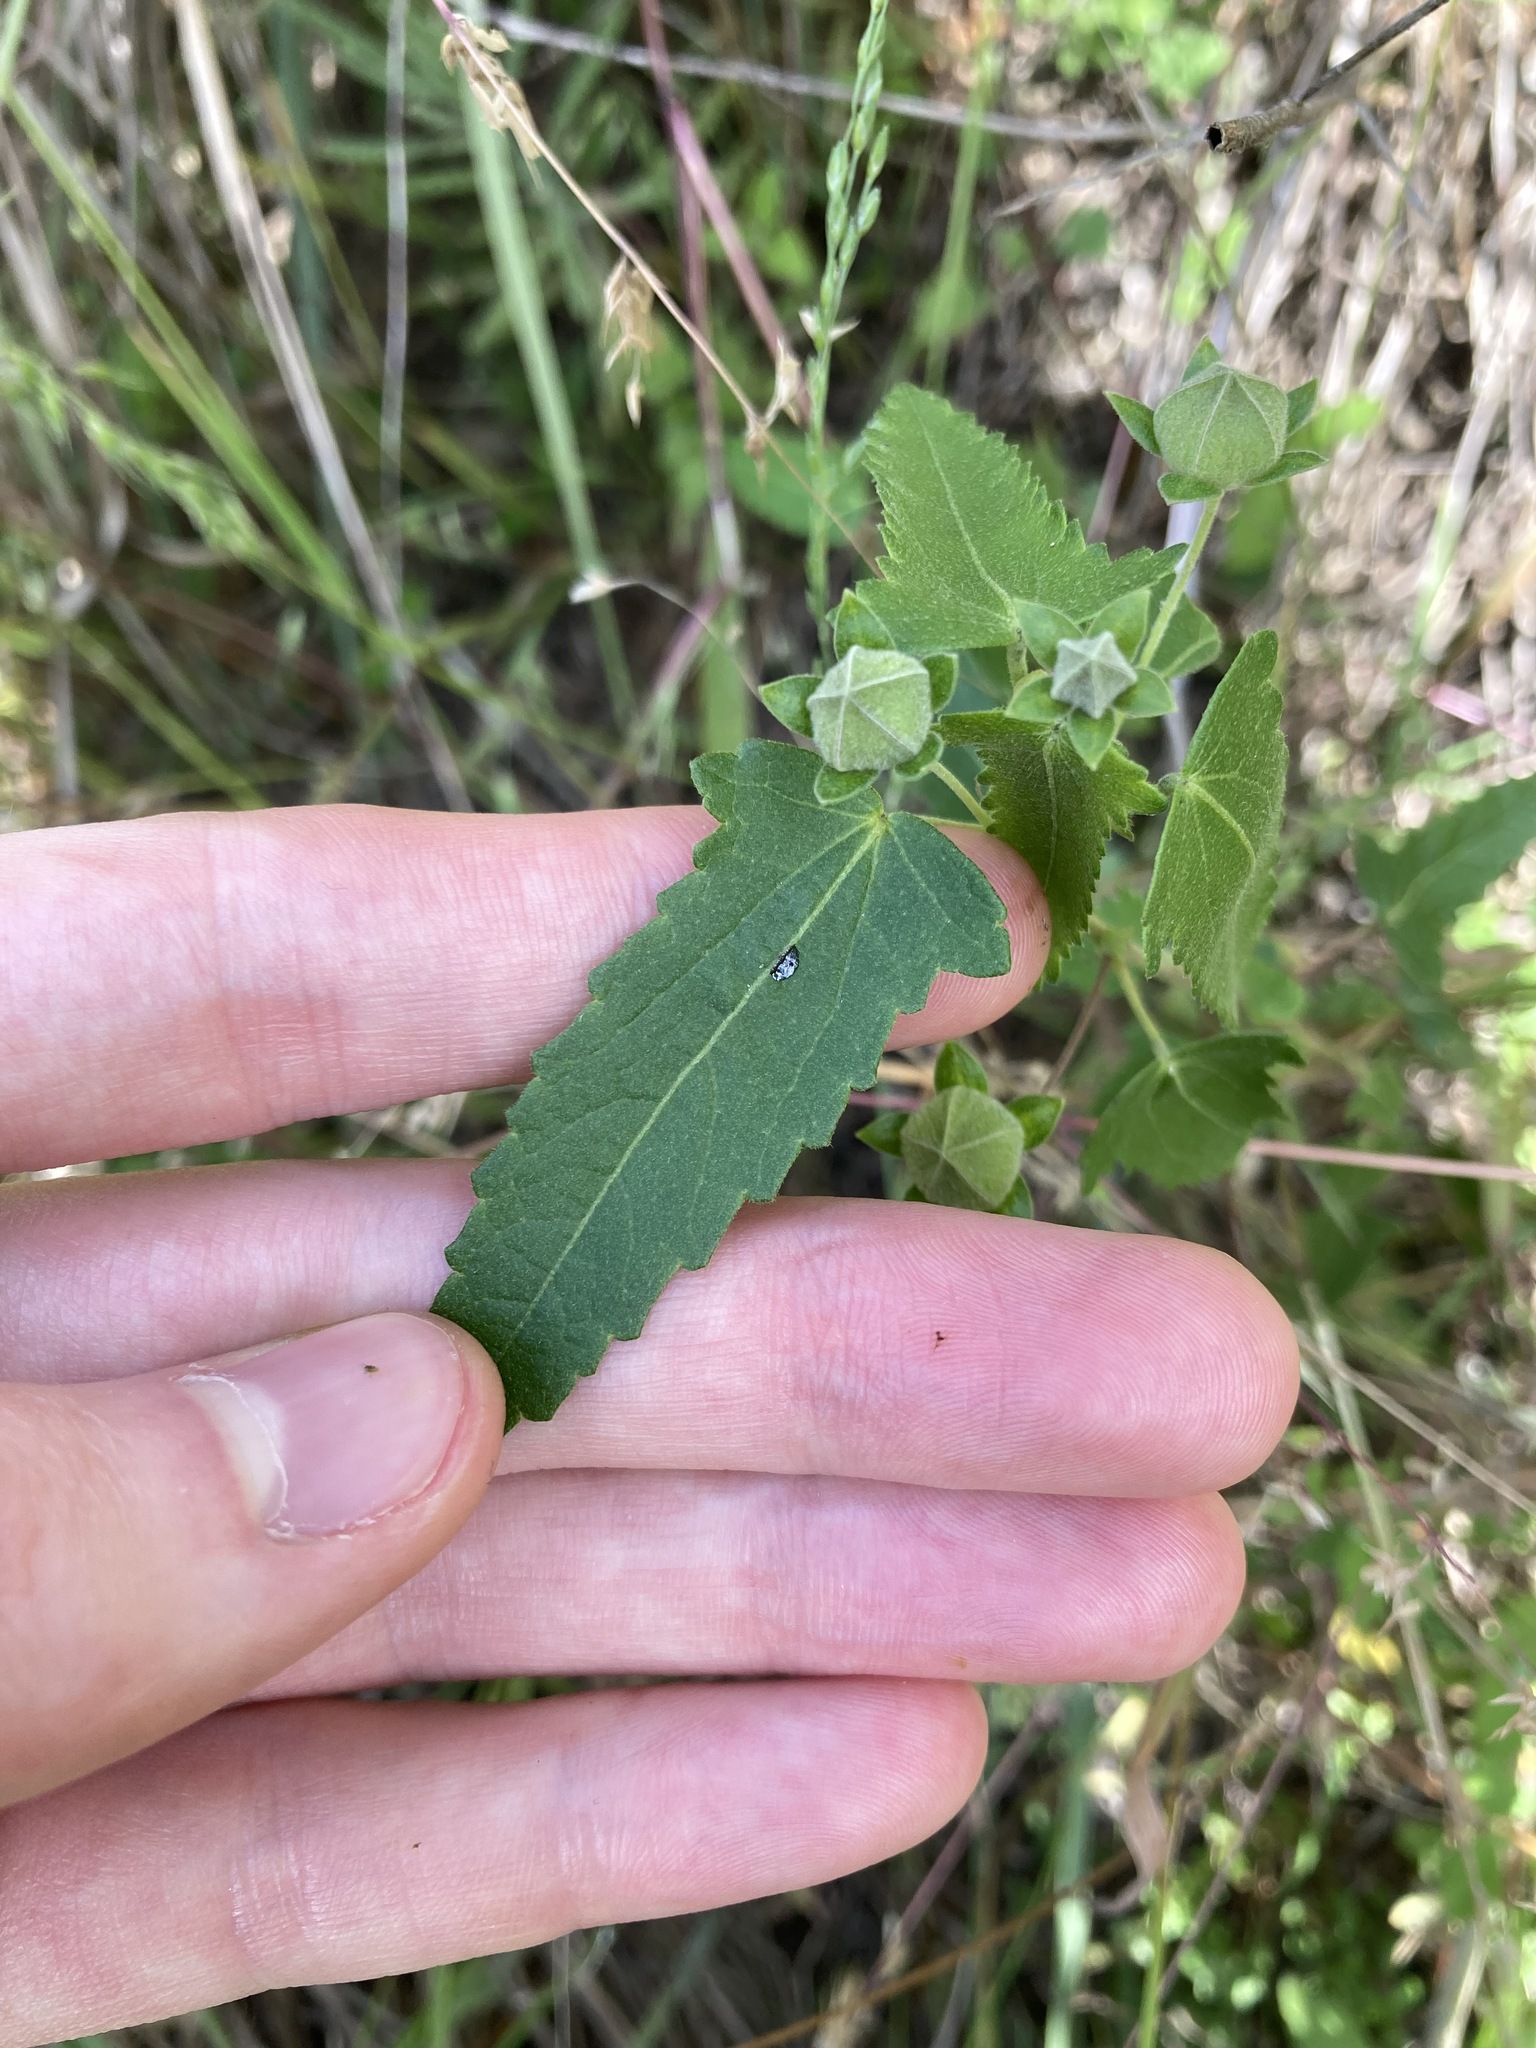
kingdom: Plantae
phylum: Tracheophyta
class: Magnoliopsida
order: Malvales
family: Malvaceae
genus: Pavonia
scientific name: Pavonia hastata
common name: Spearleaf swampmallow
